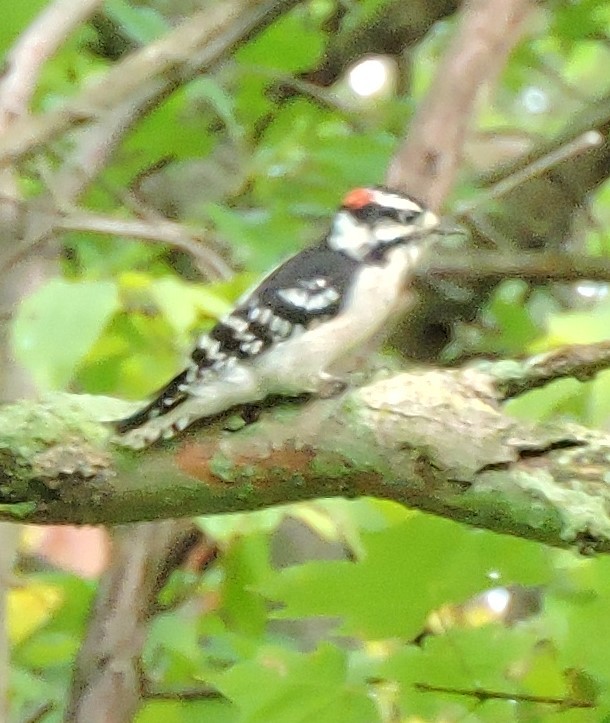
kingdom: Animalia
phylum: Chordata
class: Aves
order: Piciformes
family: Picidae
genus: Dryobates
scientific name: Dryobates pubescens
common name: Downy woodpecker
